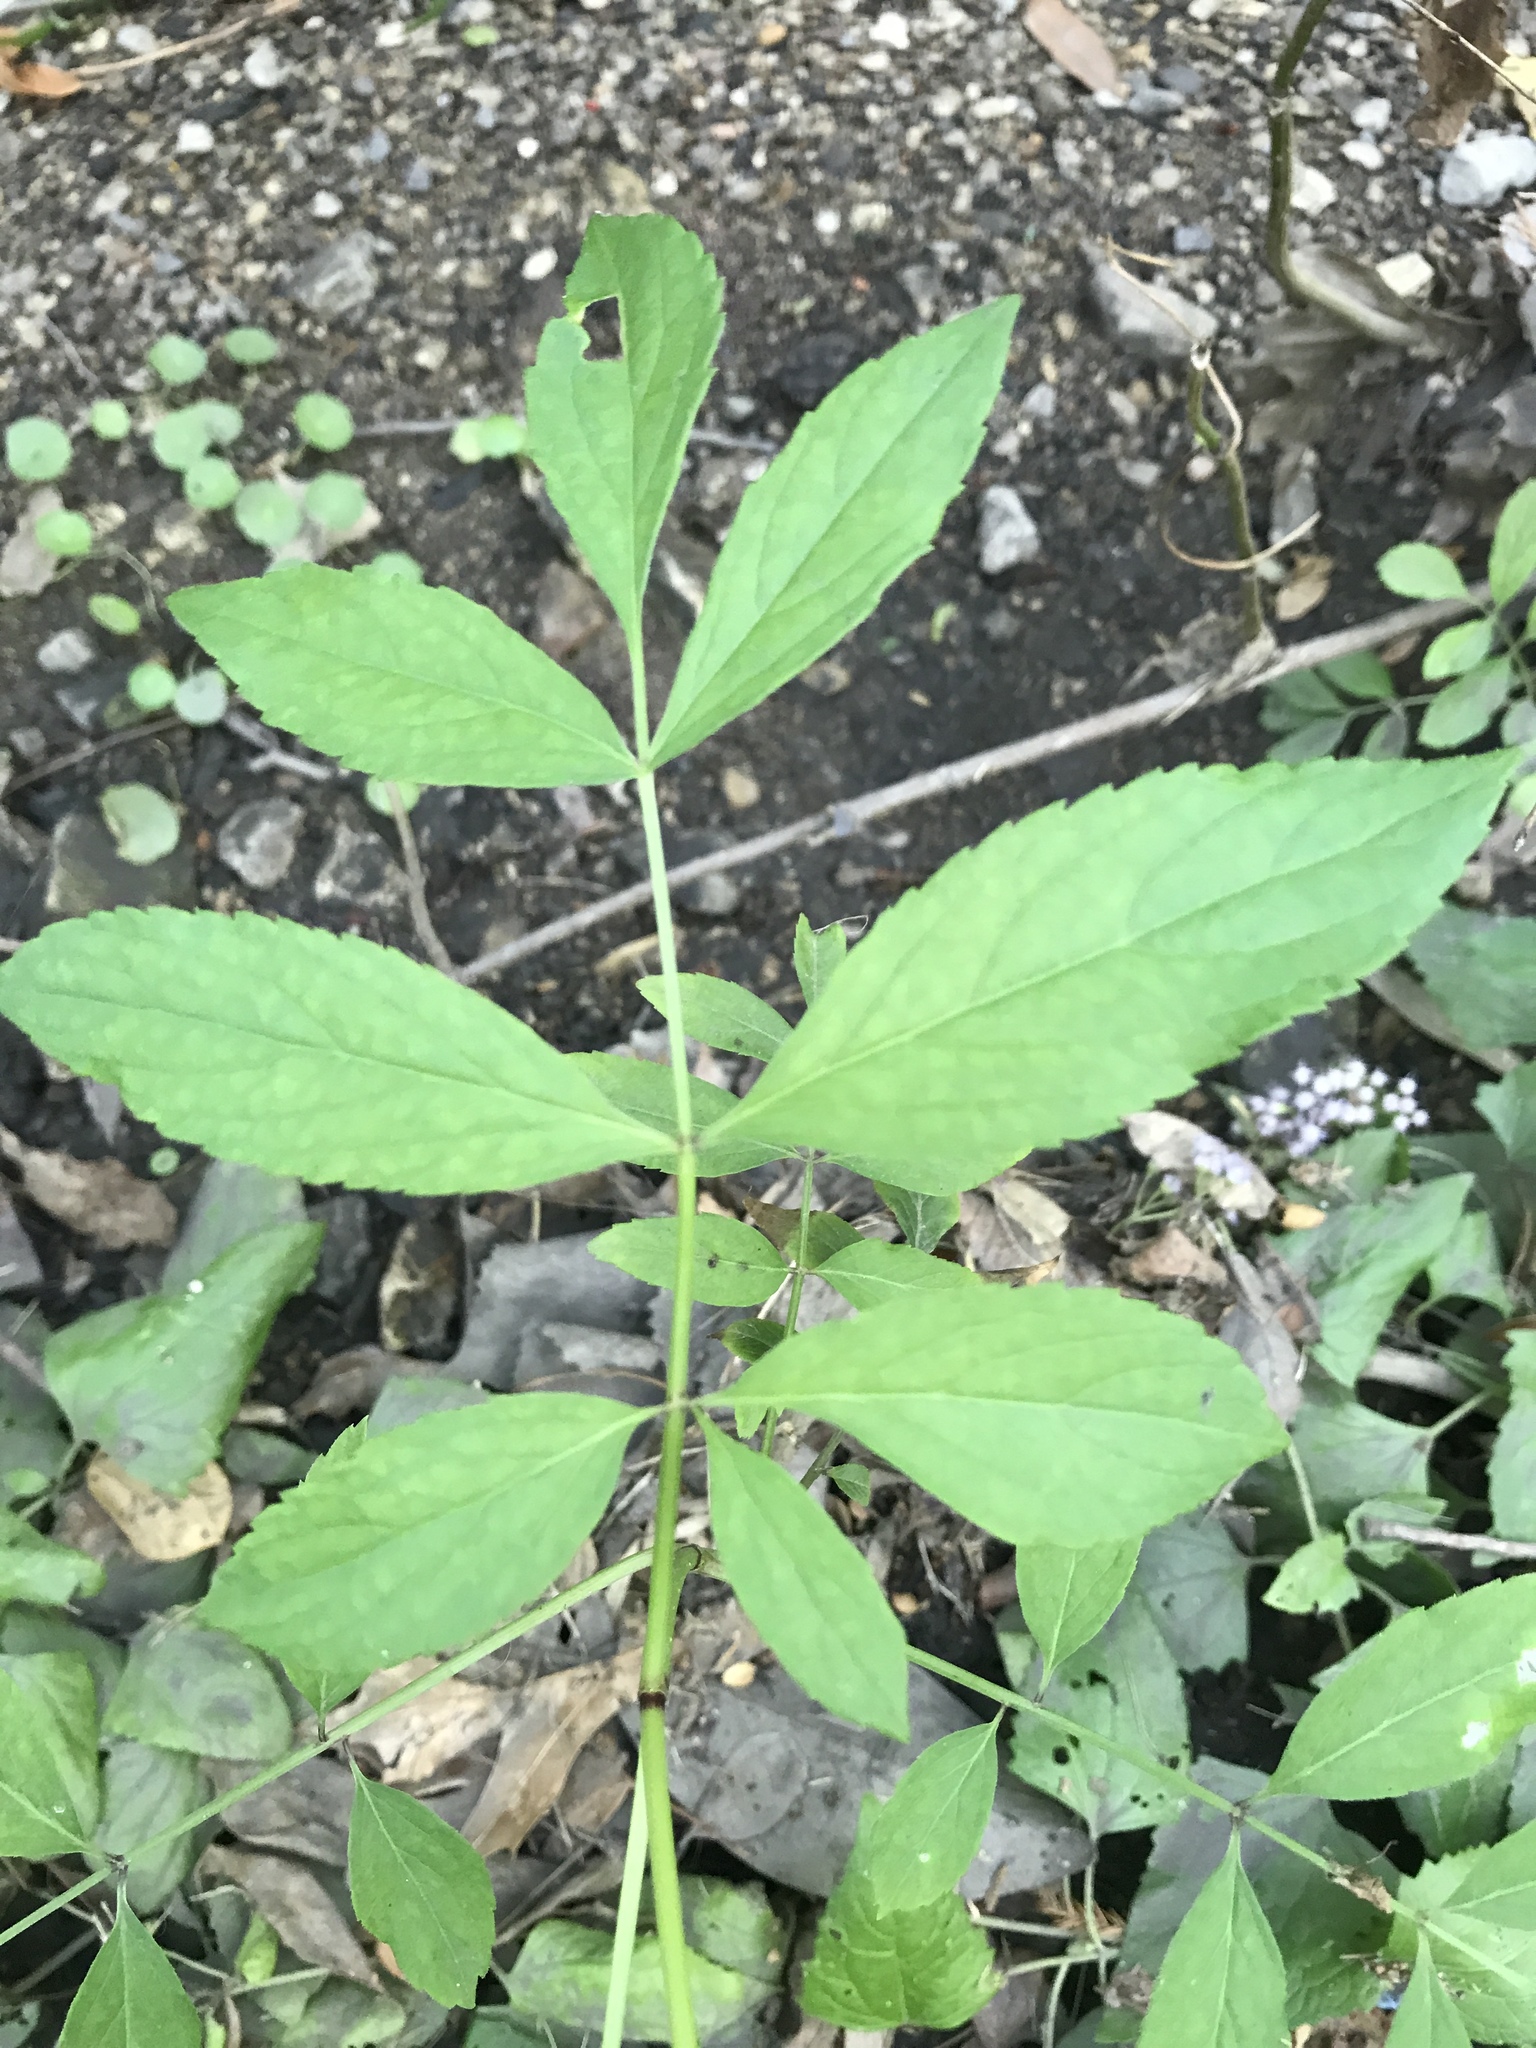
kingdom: Plantae
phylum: Tracheophyta
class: Magnoliopsida
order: Dipsacales
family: Viburnaceae
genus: Sambucus
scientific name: Sambucus canadensis
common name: American elder
